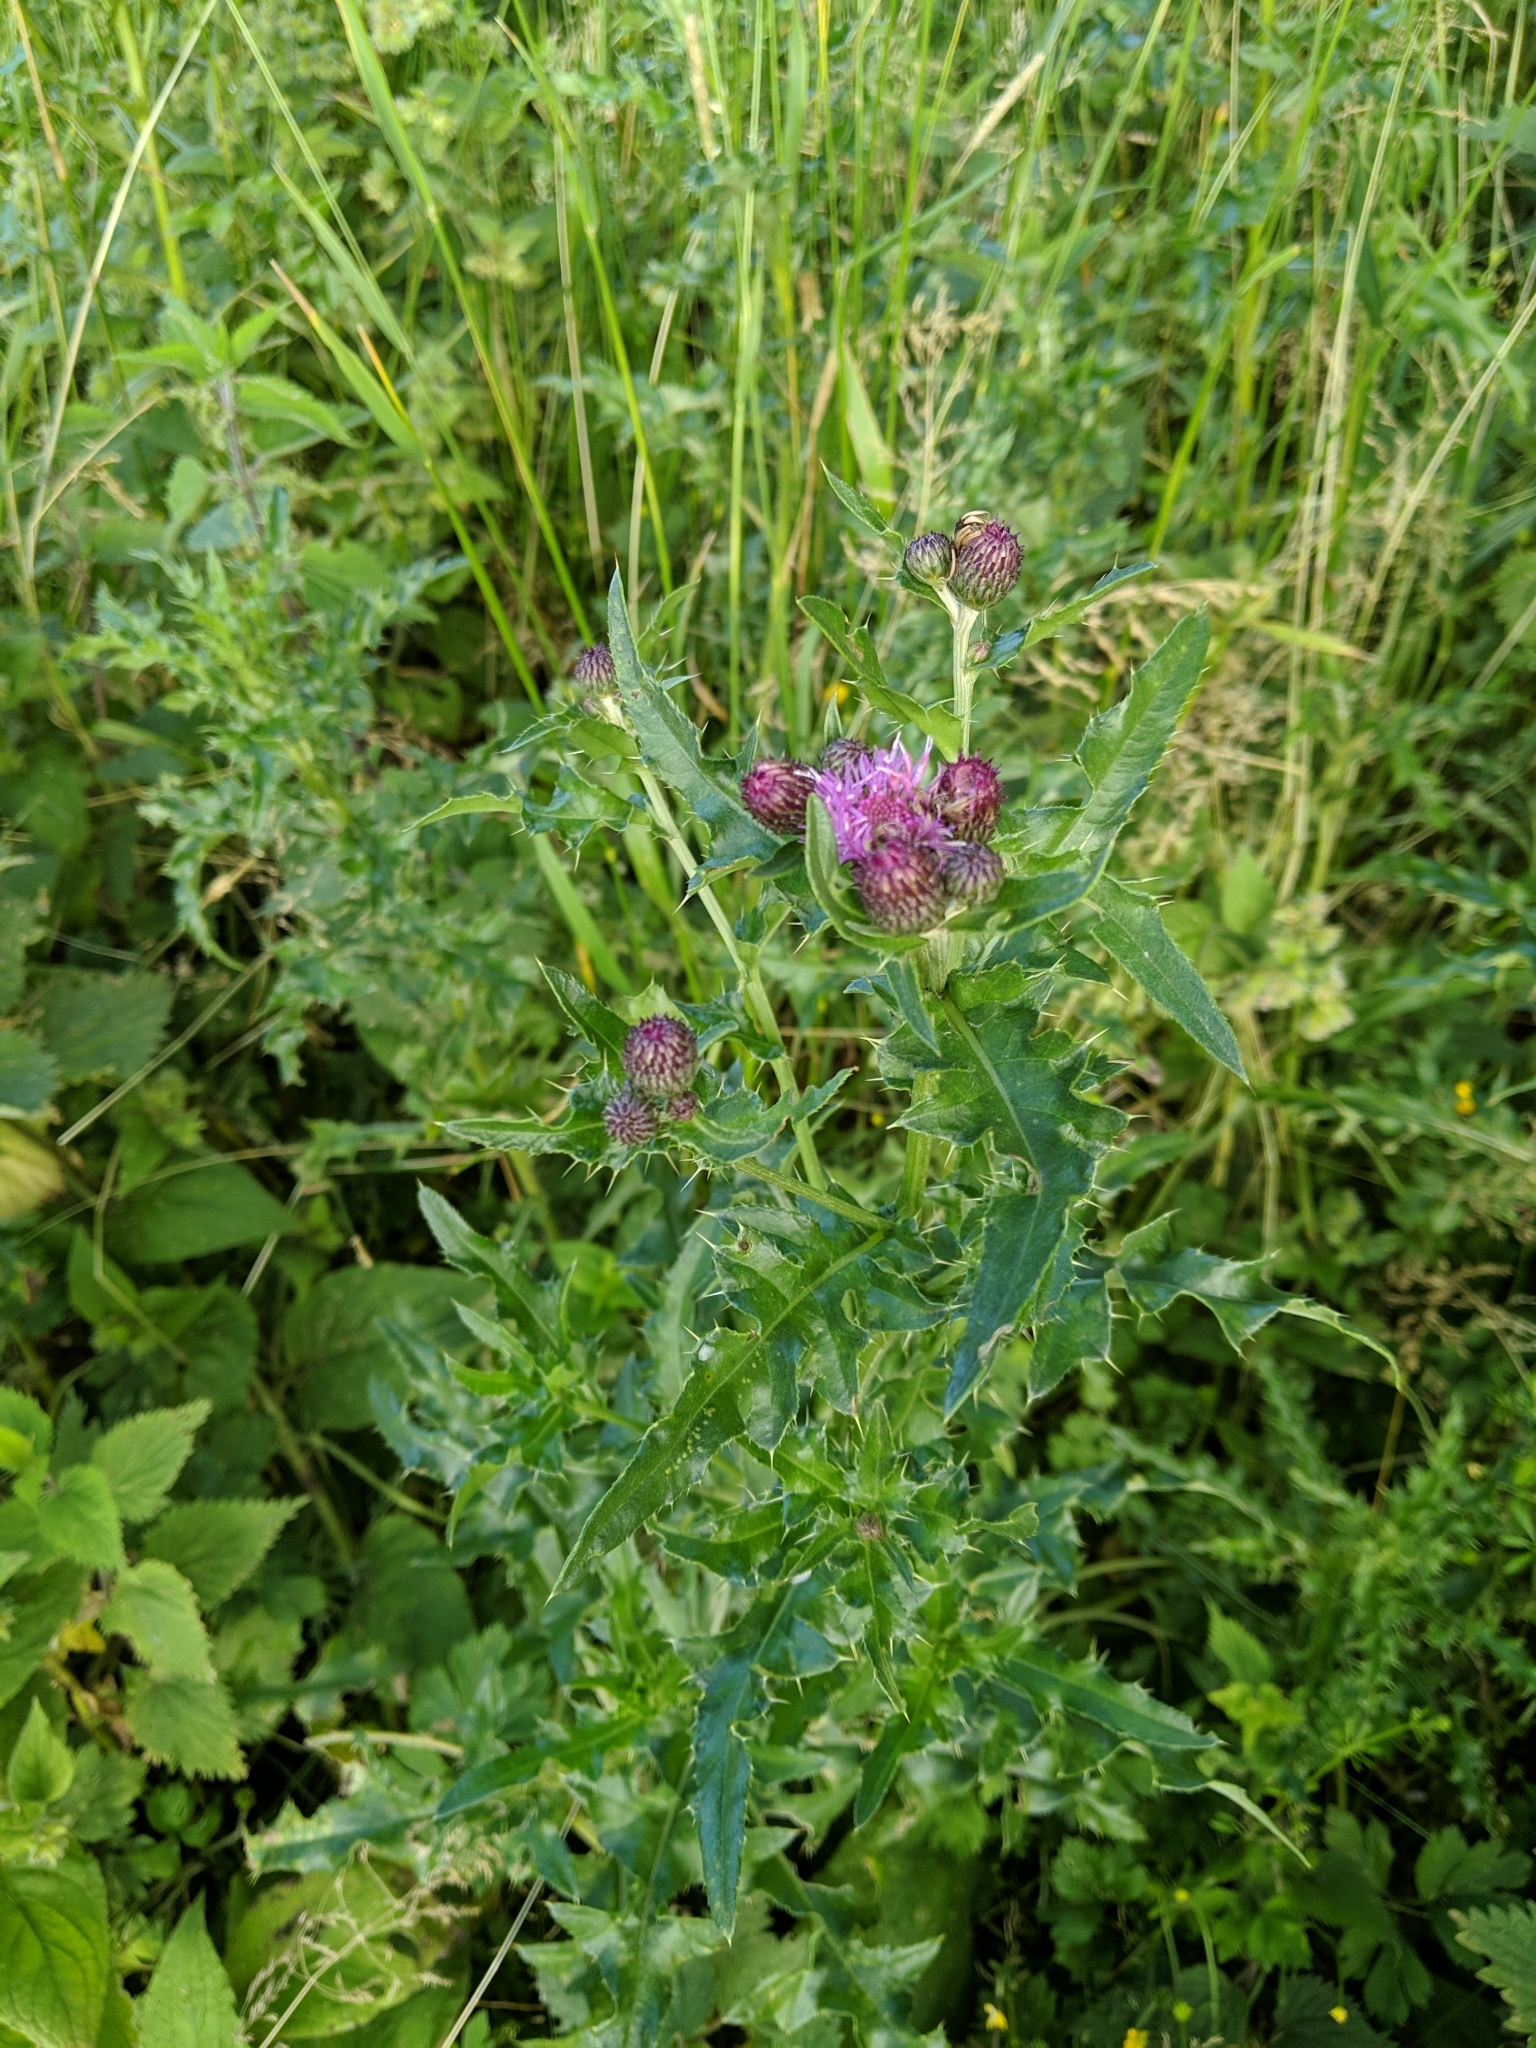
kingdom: Plantae
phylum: Tracheophyta
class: Magnoliopsida
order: Asterales
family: Asteraceae
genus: Cirsium
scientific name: Cirsium arvense
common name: Creeping thistle
